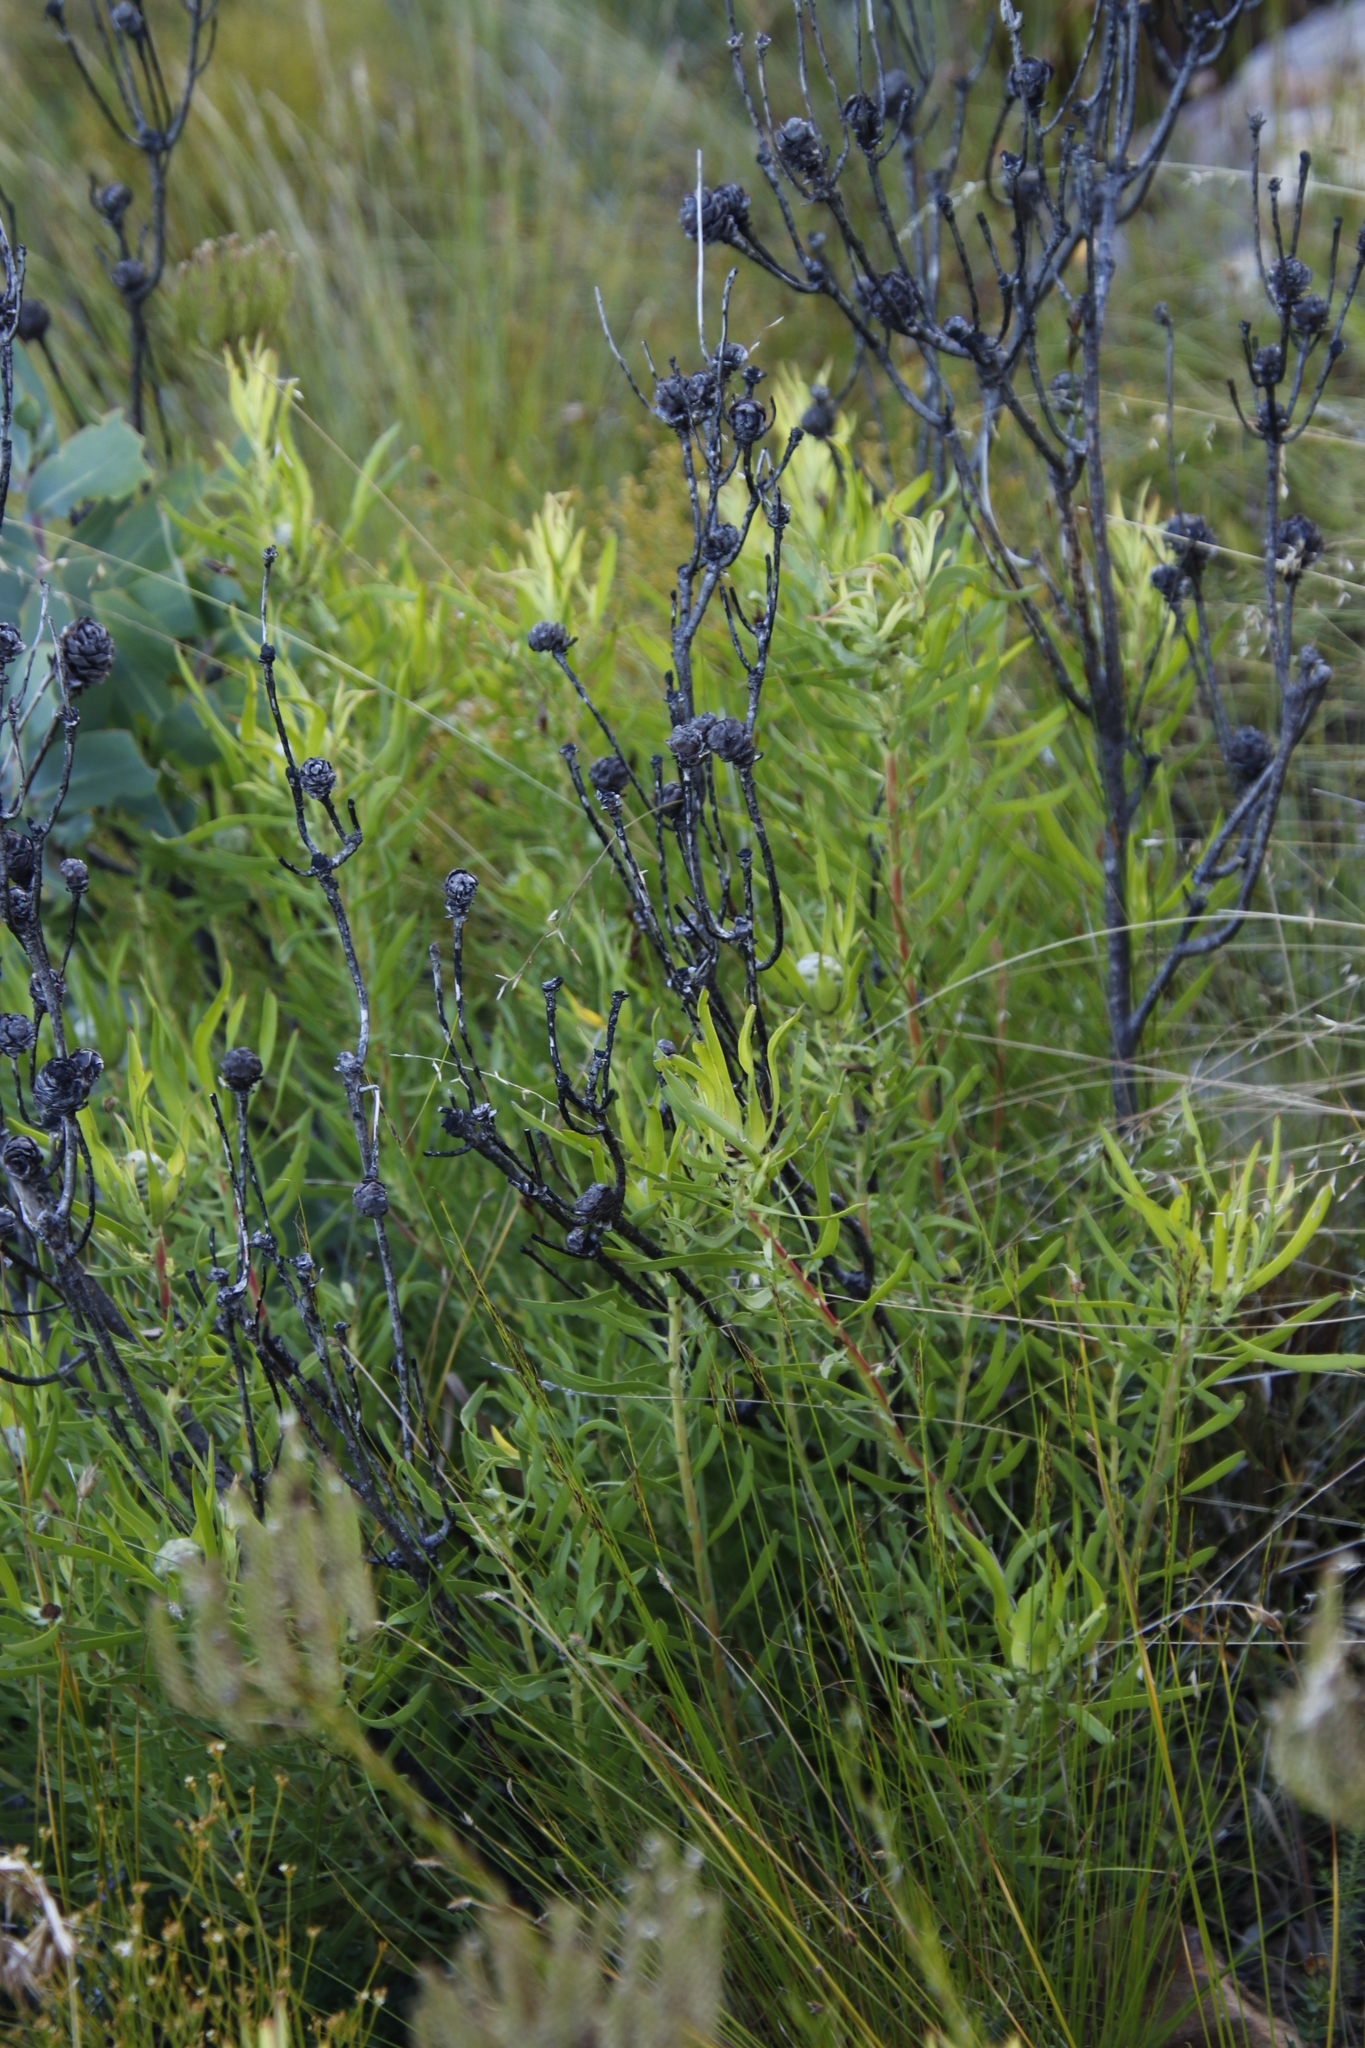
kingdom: Plantae
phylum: Tracheophyta
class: Magnoliopsida
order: Proteales
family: Proteaceae
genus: Leucadendron
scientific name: Leucadendron salignum
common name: Common sunshine conebush
